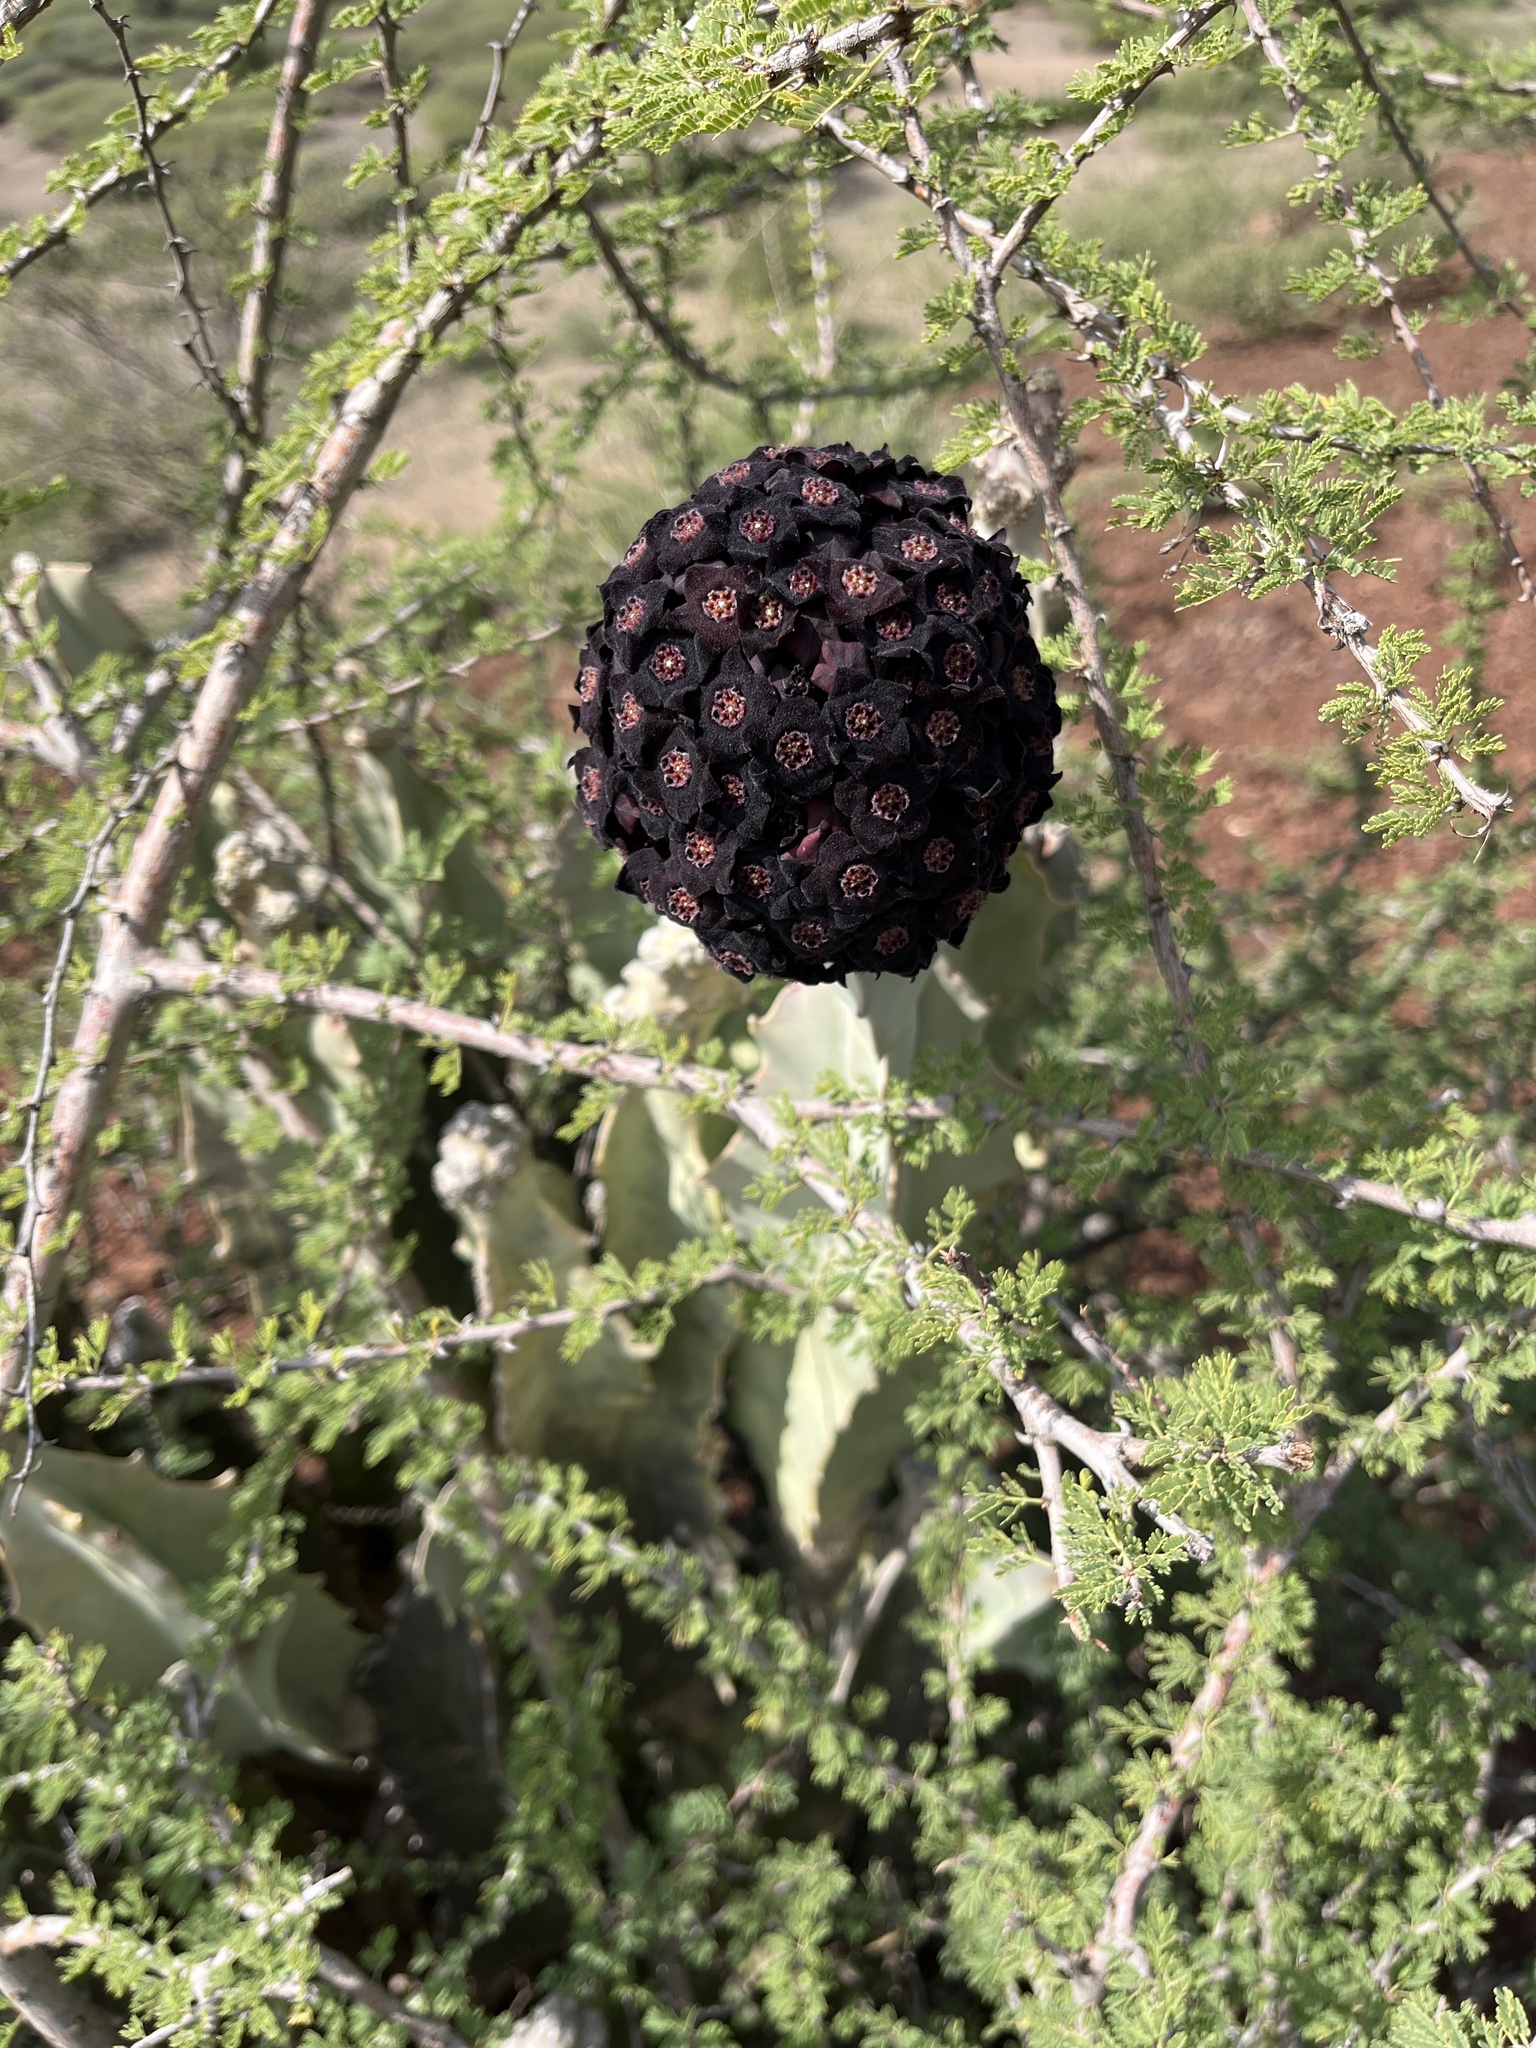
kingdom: Plantae
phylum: Tracheophyta
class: Magnoliopsida
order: Gentianales
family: Apocynaceae
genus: Ceropegia
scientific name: Ceropegia retrospiciens
